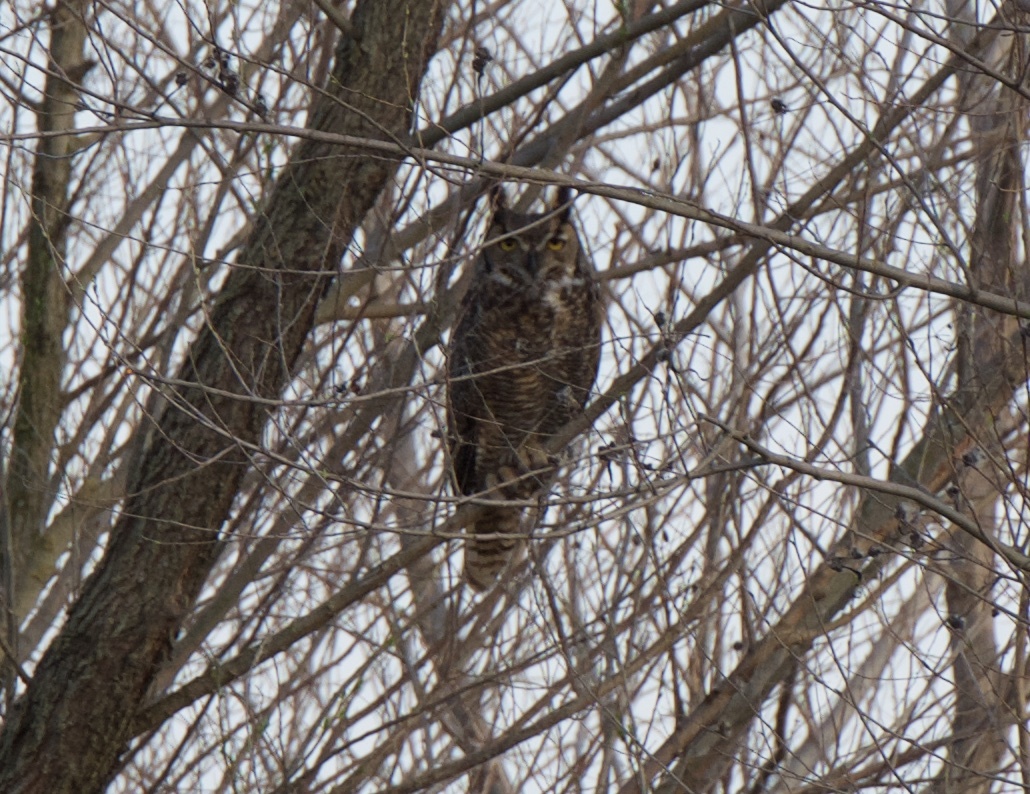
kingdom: Animalia
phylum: Chordata
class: Aves
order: Strigiformes
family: Strigidae
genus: Bubo
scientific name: Bubo virginianus
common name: Great horned owl
